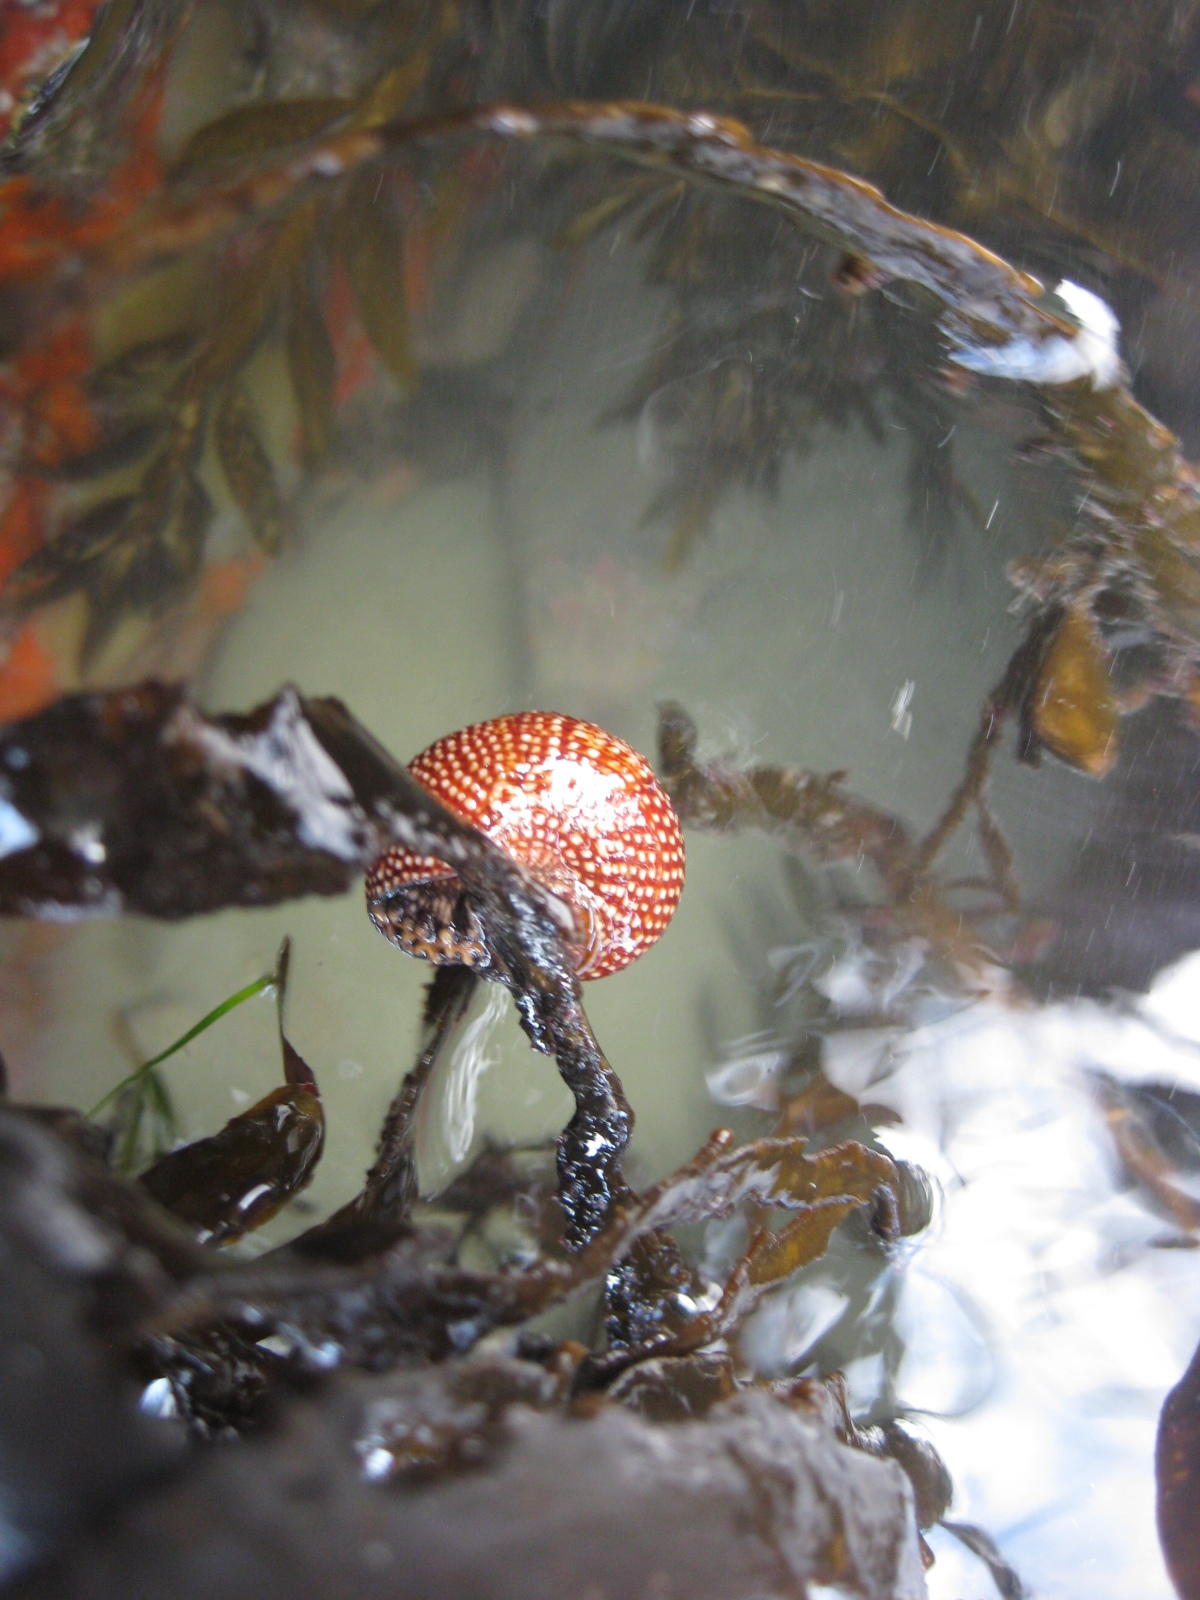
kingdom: Animalia
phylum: Mollusca
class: Gastropoda
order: Trochida
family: Calliostomatidae
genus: Maurea
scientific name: Maurea punctulata
